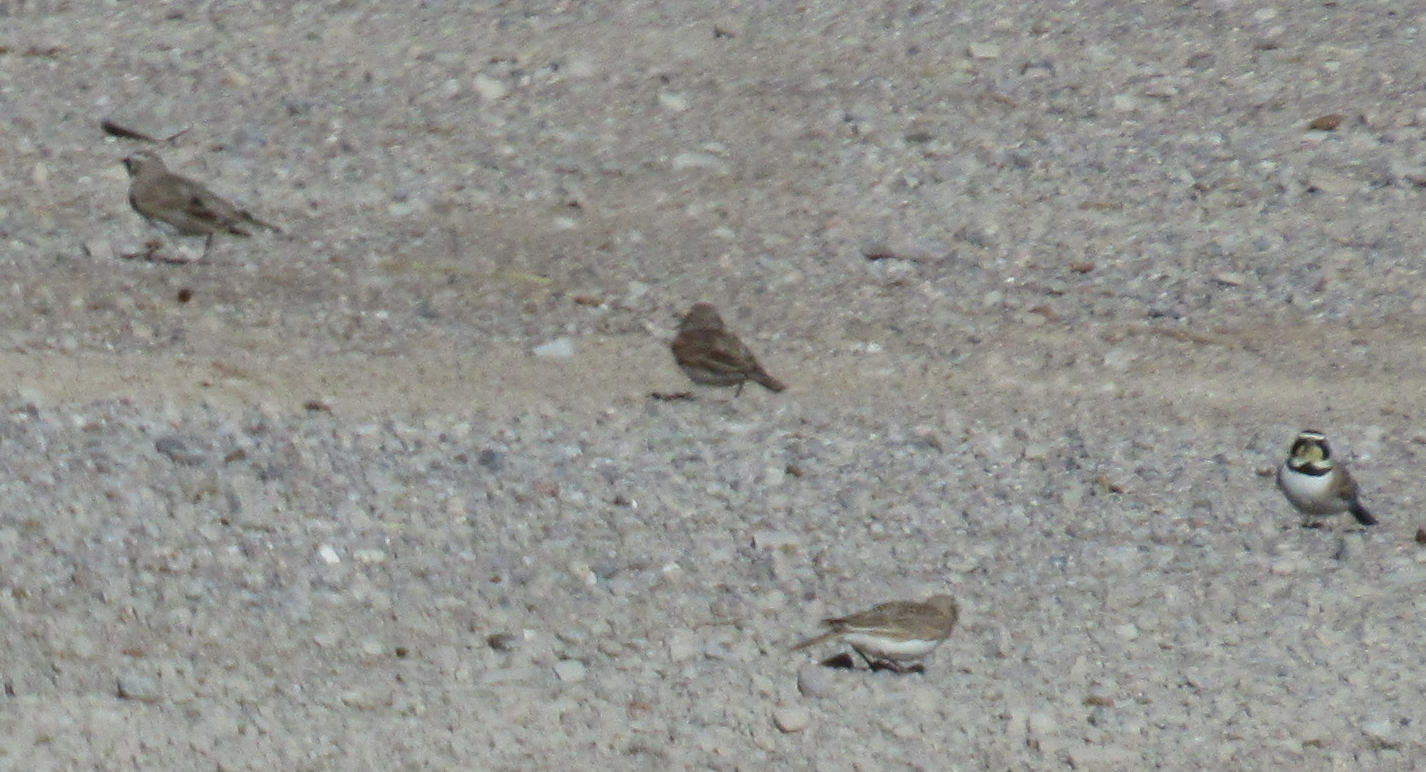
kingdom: Animalia
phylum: Chordata
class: Aves
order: Passeriformes
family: Alaudidae
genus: Eremophila
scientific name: Eremophila alpestris
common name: Horned lark
